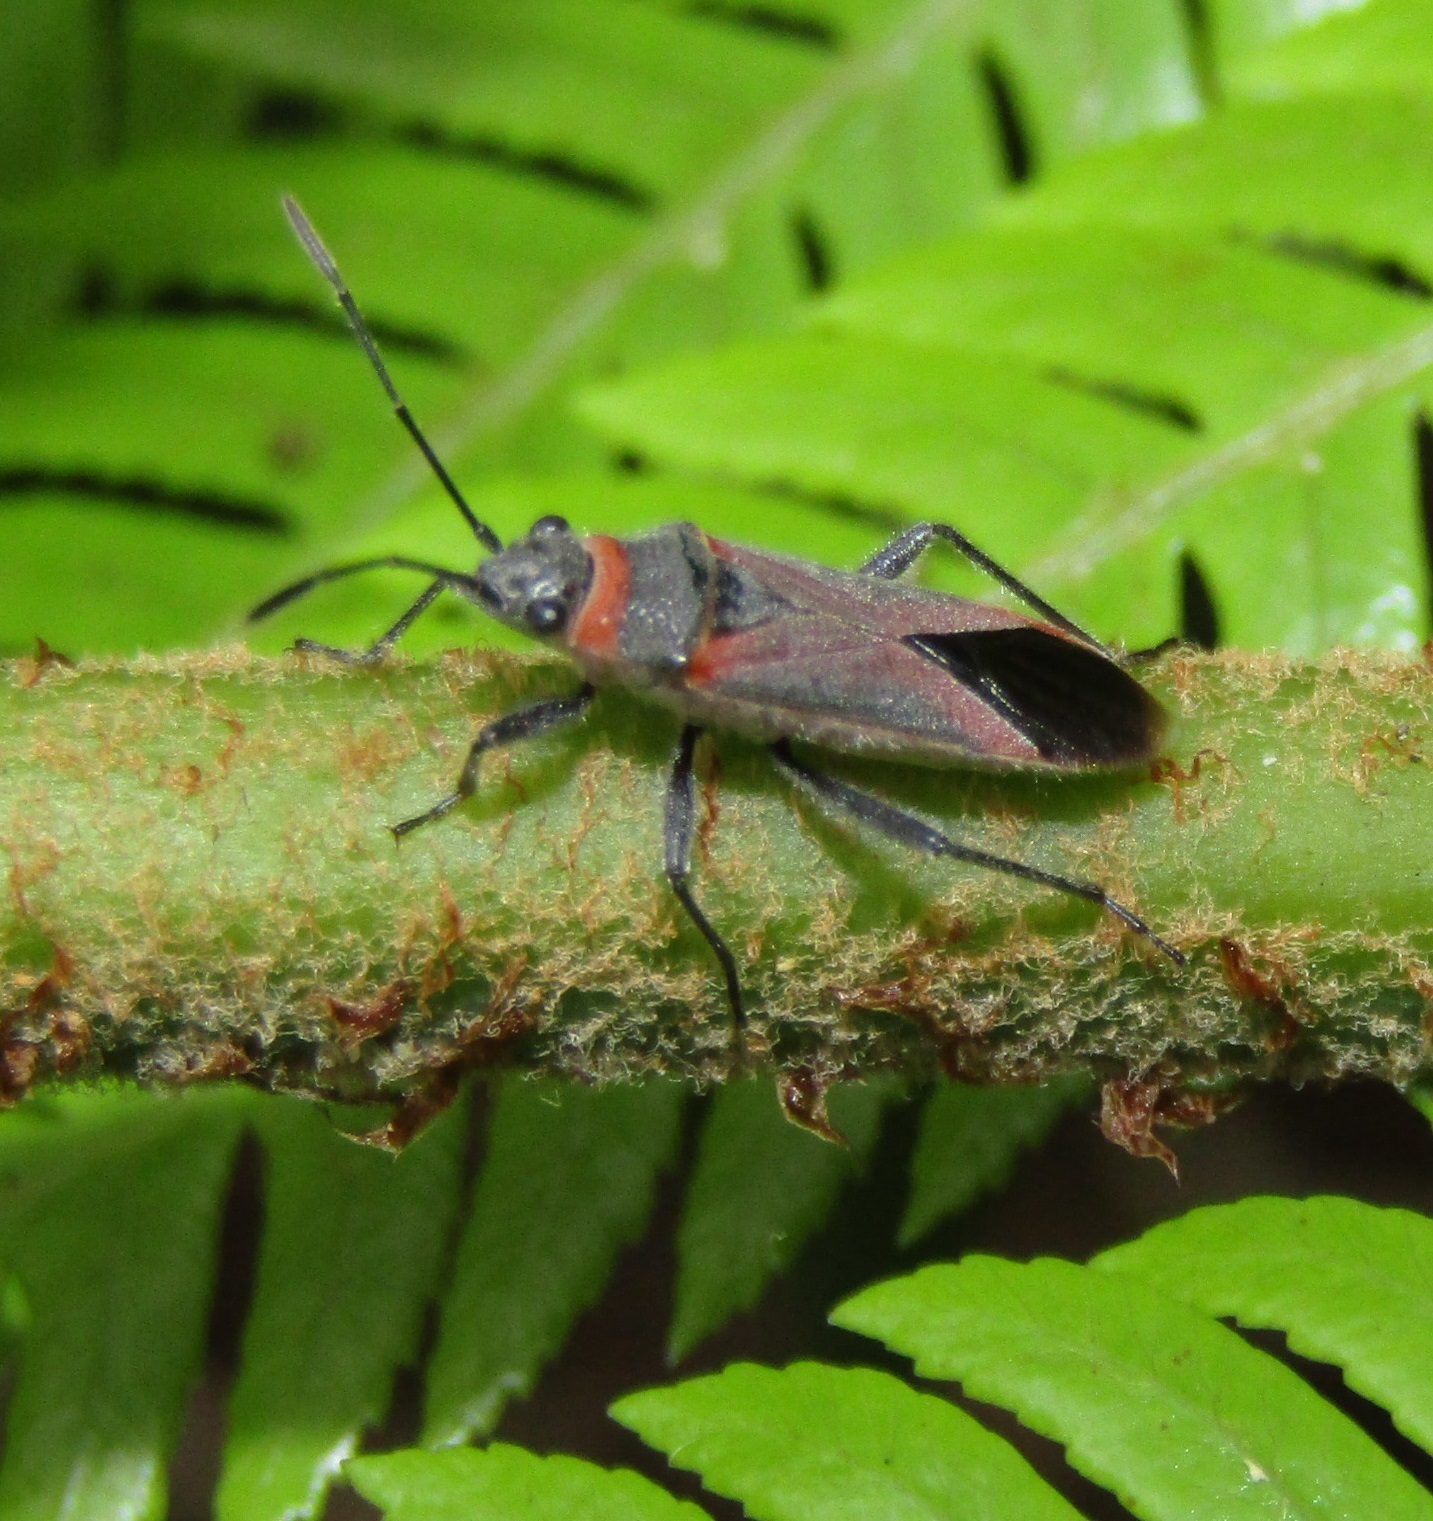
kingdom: Animalia
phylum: Arthropoda
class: Insecta
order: Hemiptera
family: Lygaeidae
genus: Arocatus
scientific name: Arocatus rusticus
